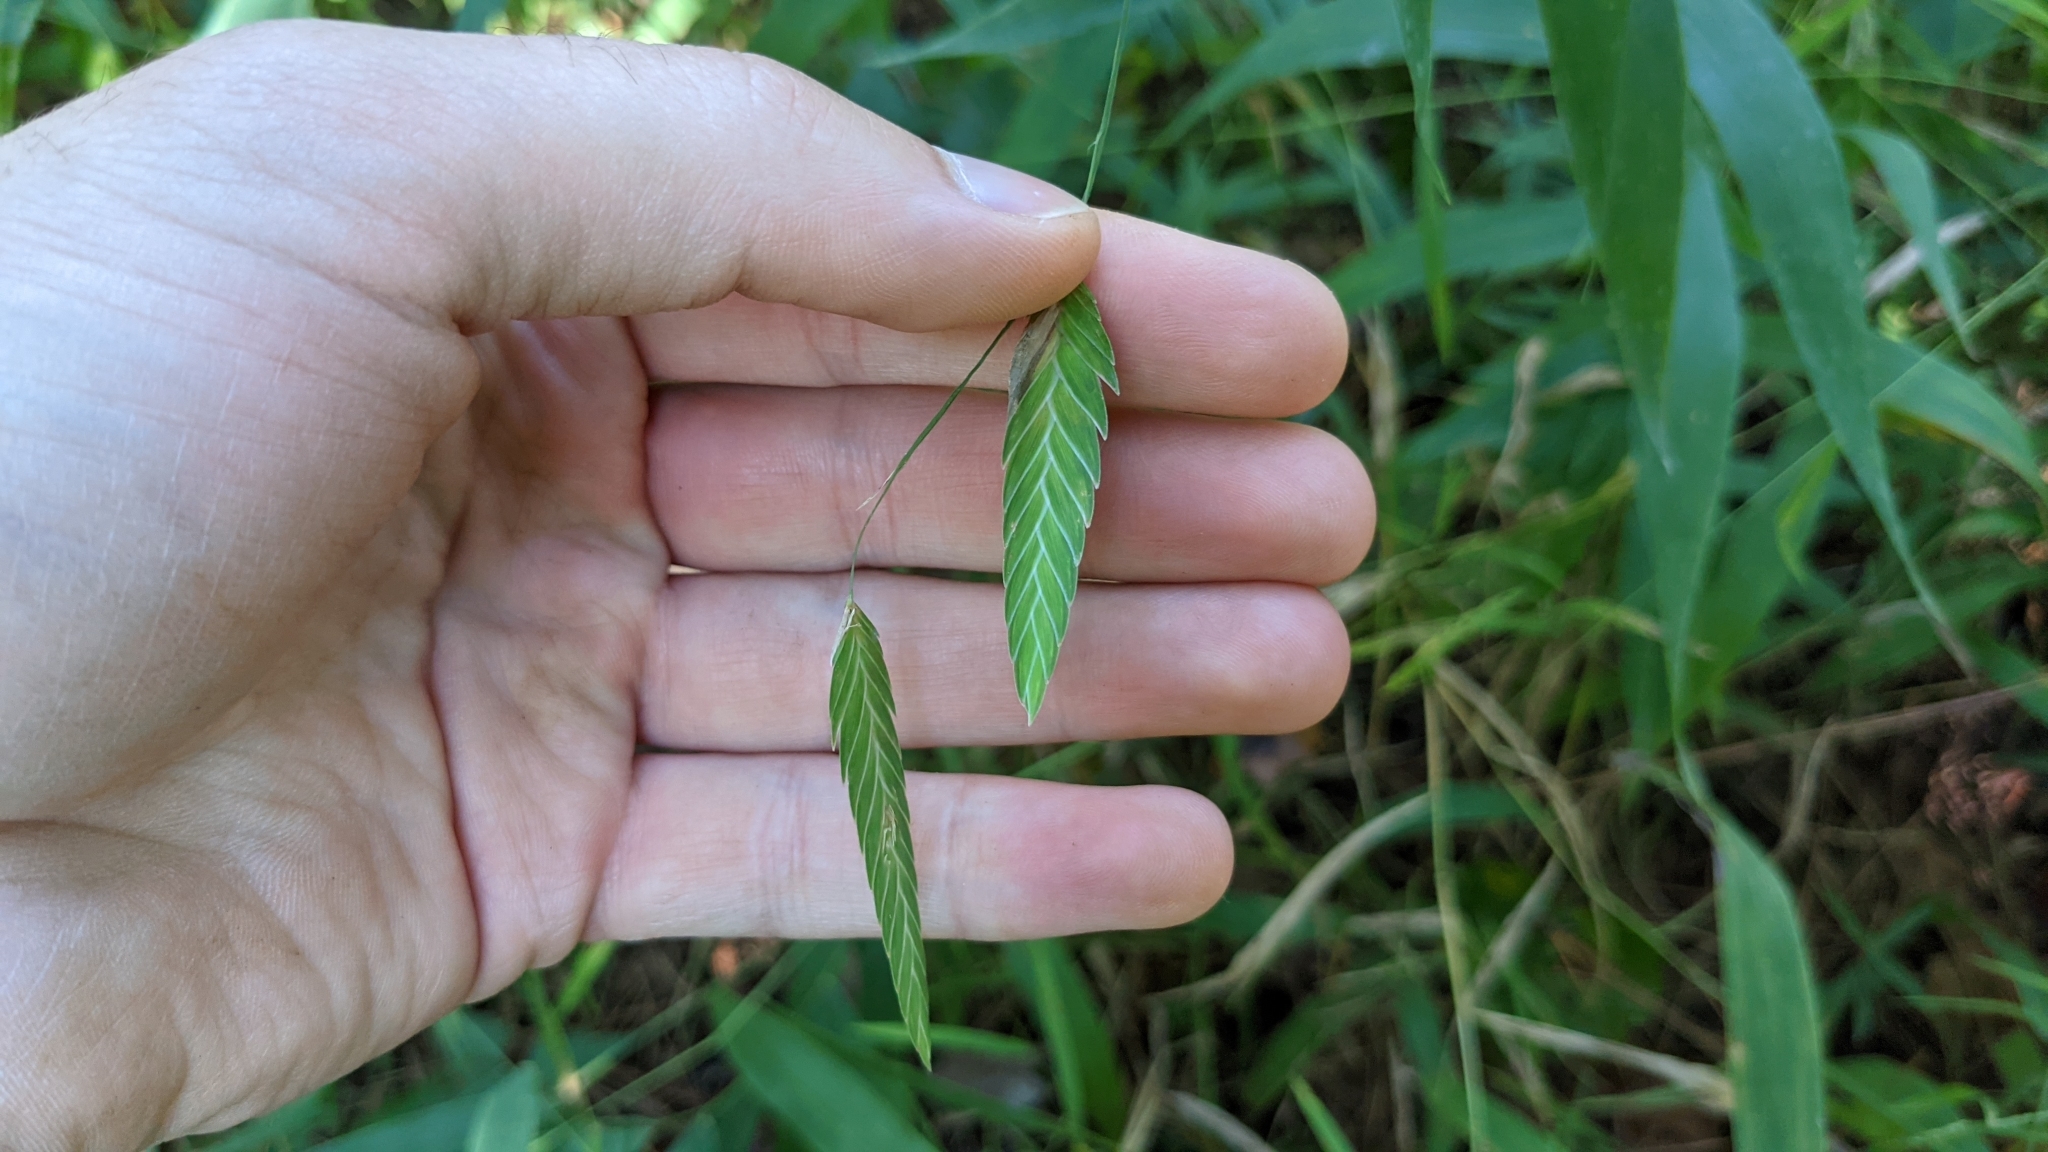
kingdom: Plantae
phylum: Tracheophyta
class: Liliopsida
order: Poales
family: Poaceae
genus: Chasmanthium
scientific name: Chasmanthium latifolium
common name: Broad-leaved chasmanthium
